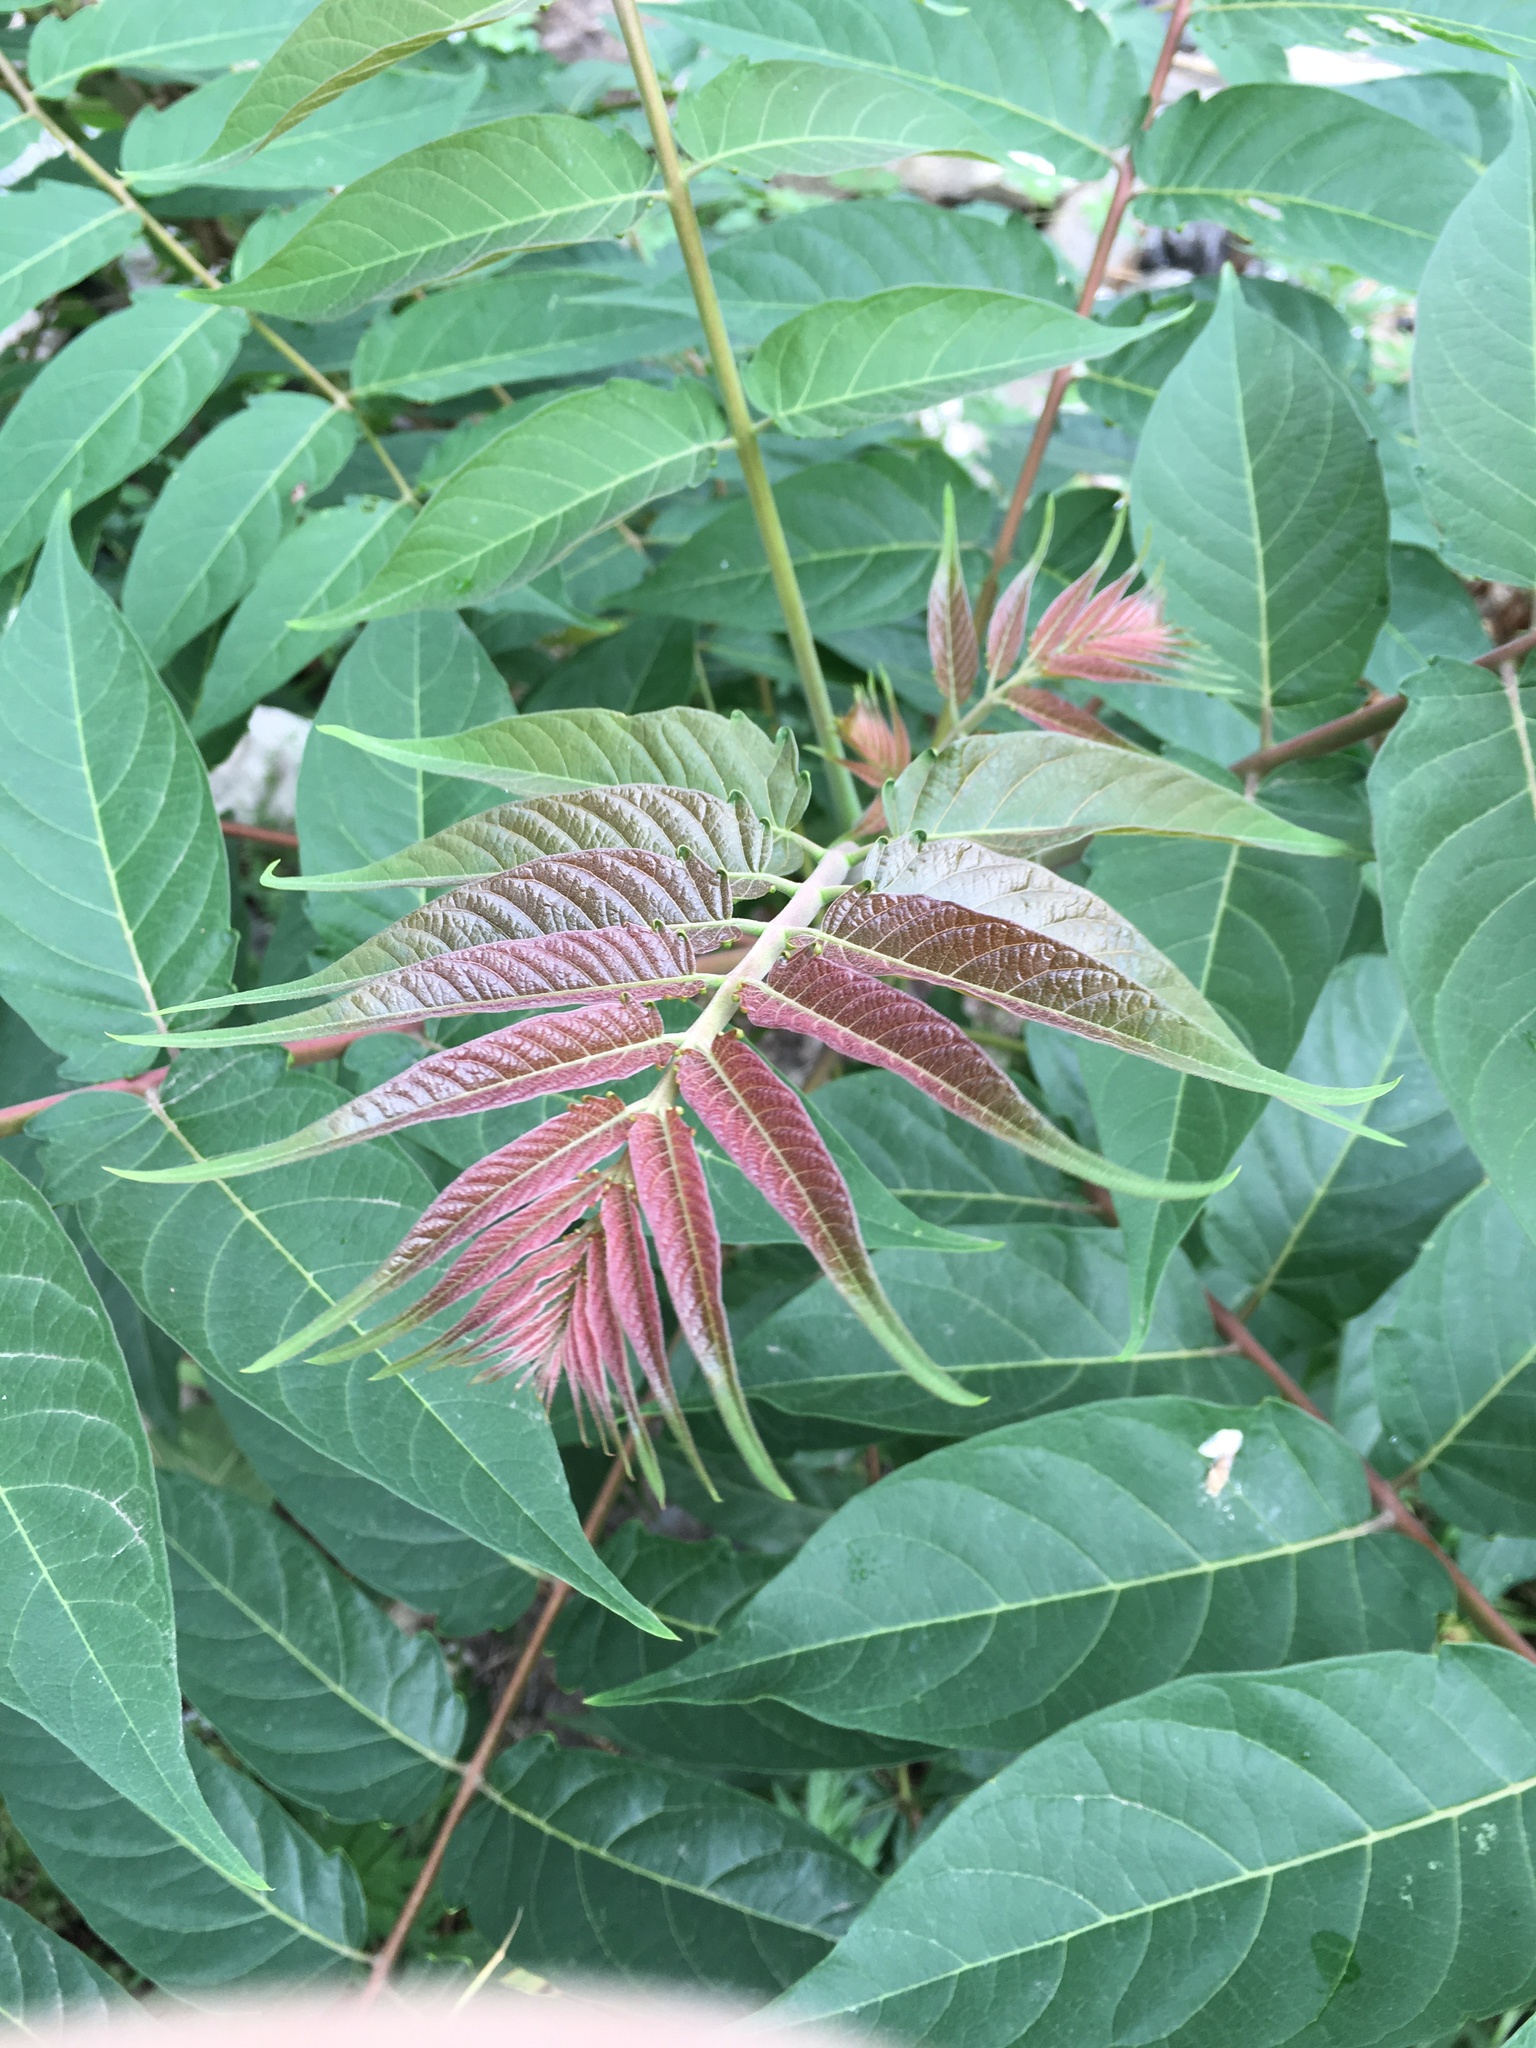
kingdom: Plantae
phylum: Tracheophyta
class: Magnoliopsida
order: Sapindales
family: Simaroubaceae
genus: Ailanthus
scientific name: Ailanthus altissima
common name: Tree-of-heaven
